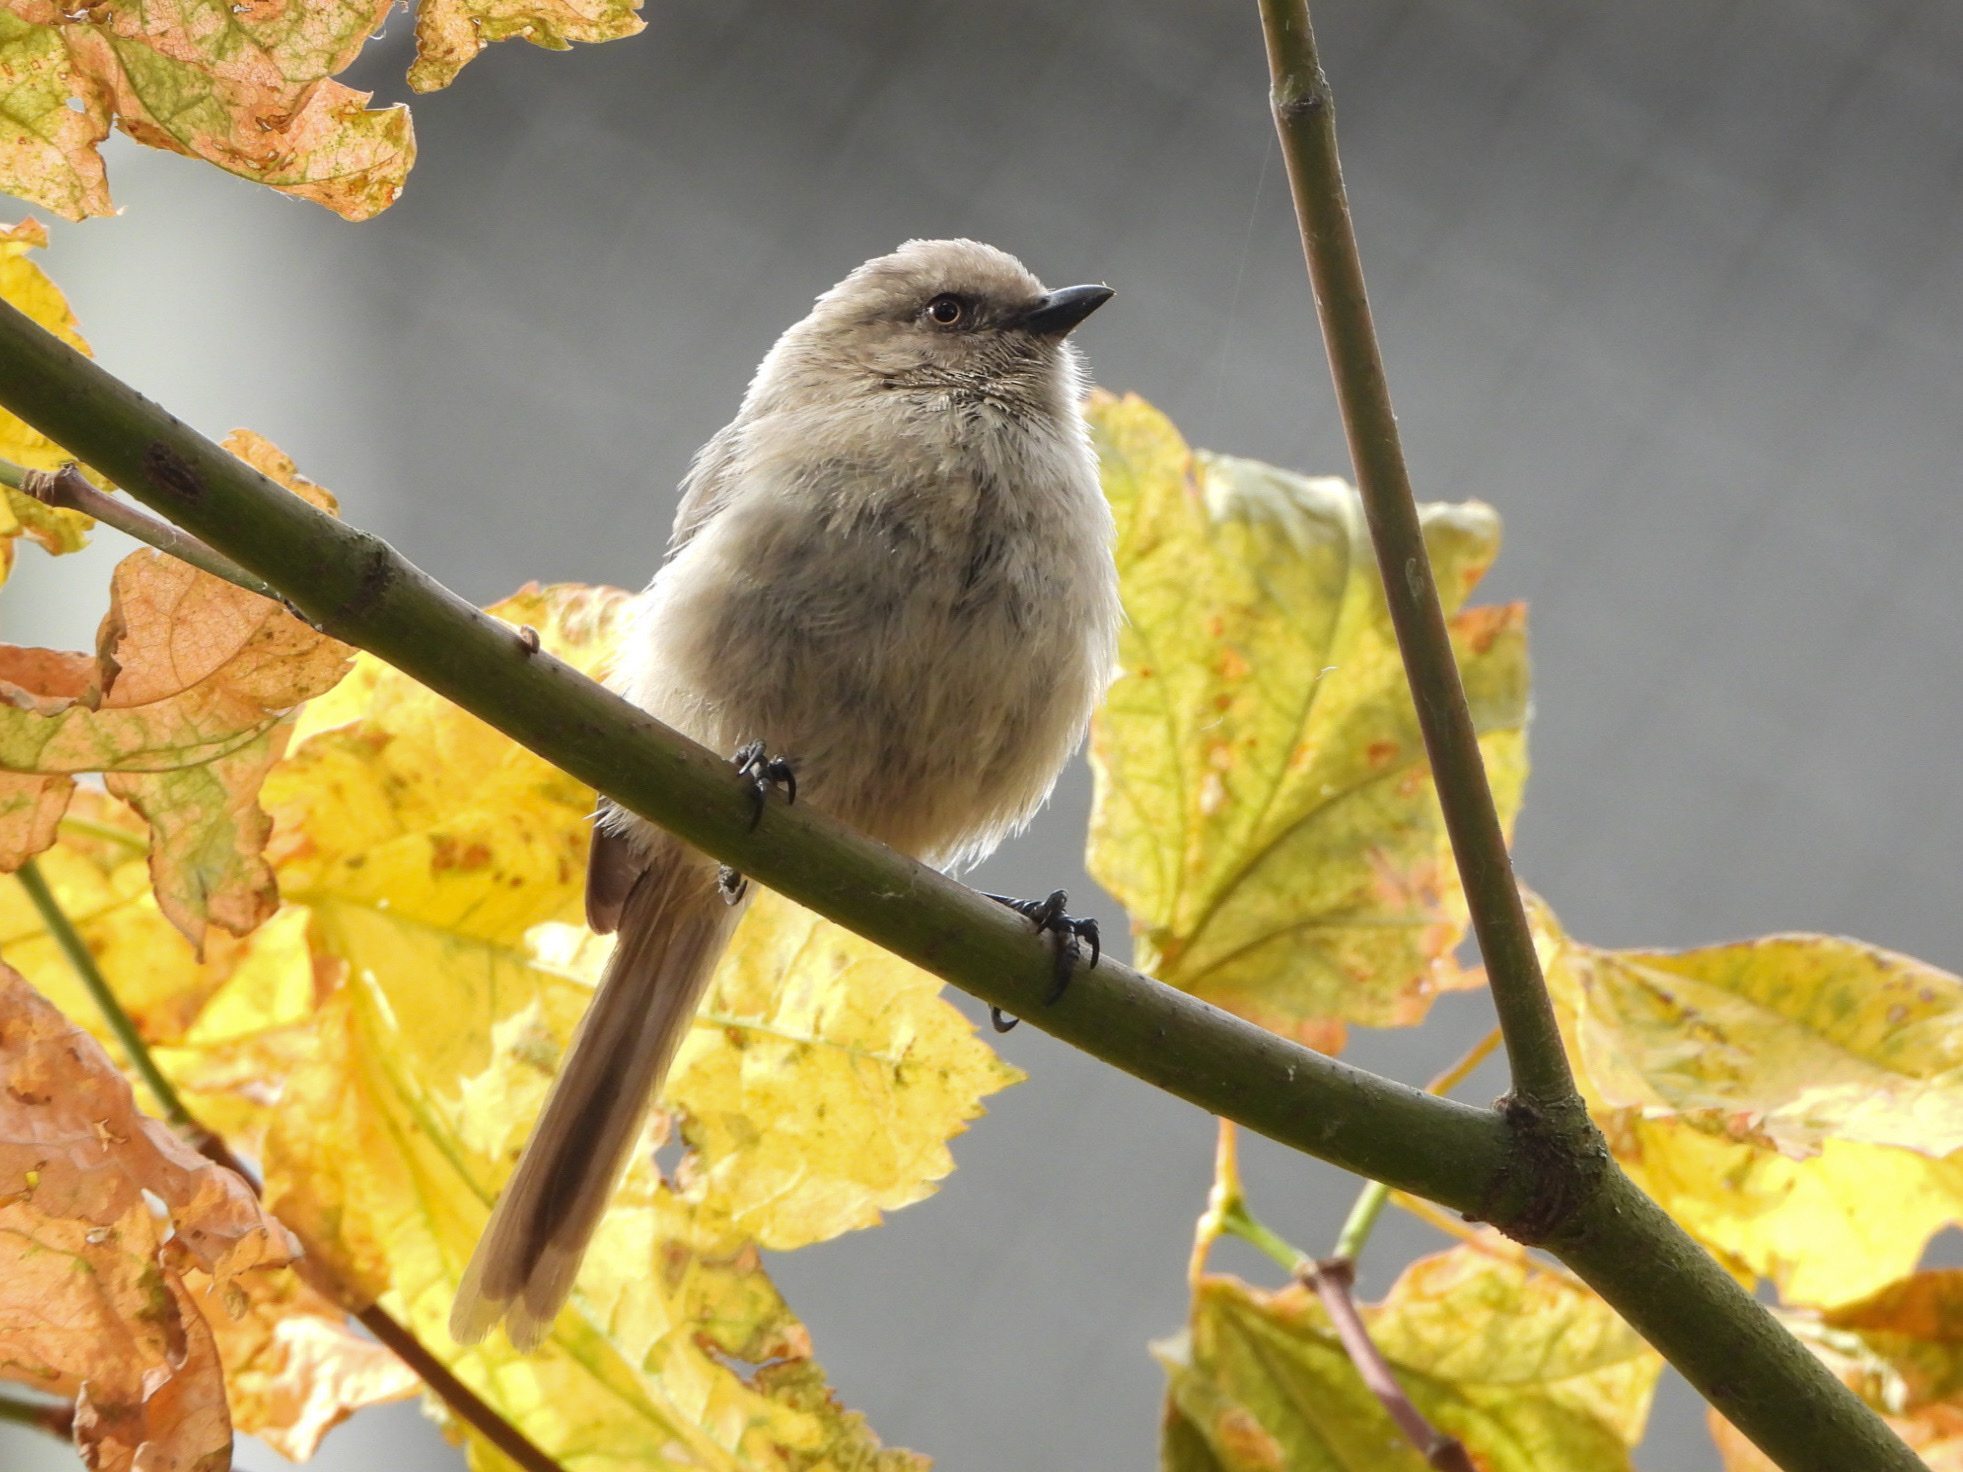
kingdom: Animalia
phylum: Chordata
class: Aves
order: Passeriformes
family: Aegithalidae
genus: Psaltriparus
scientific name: Psaltriparus minimus
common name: American bushtit
